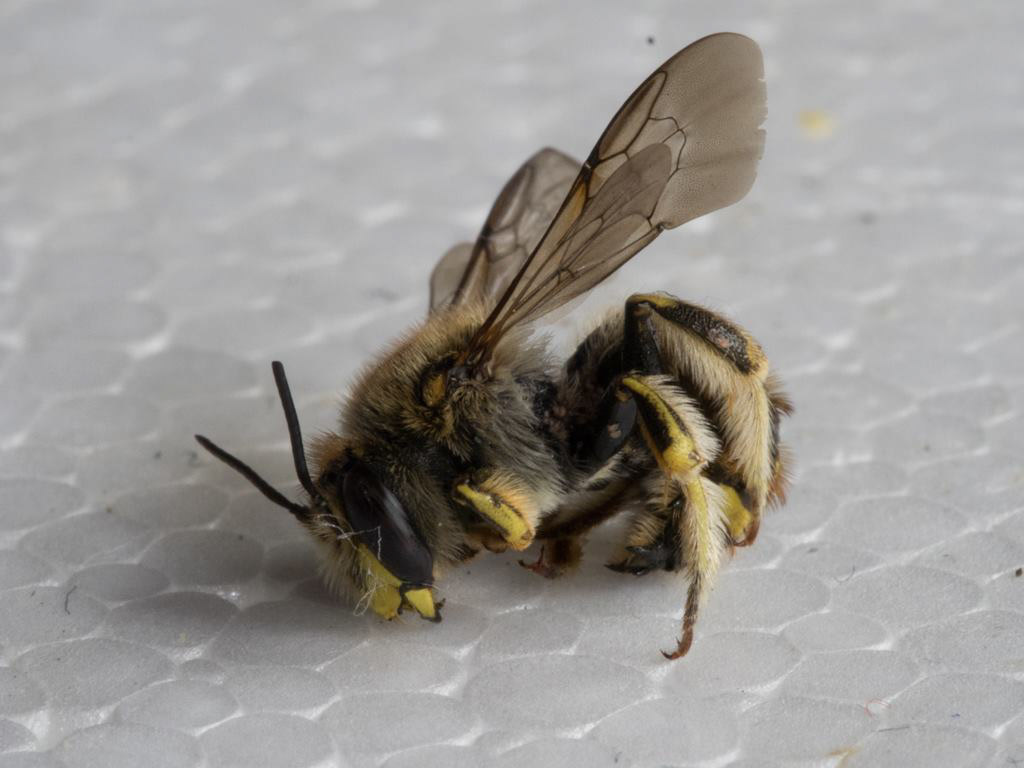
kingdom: Animalia
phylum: Arthropoda
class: Insecta
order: Hymenoptera
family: Megachilidae
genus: Anthidium
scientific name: Anthidium manicatum
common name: Wool carder bee
